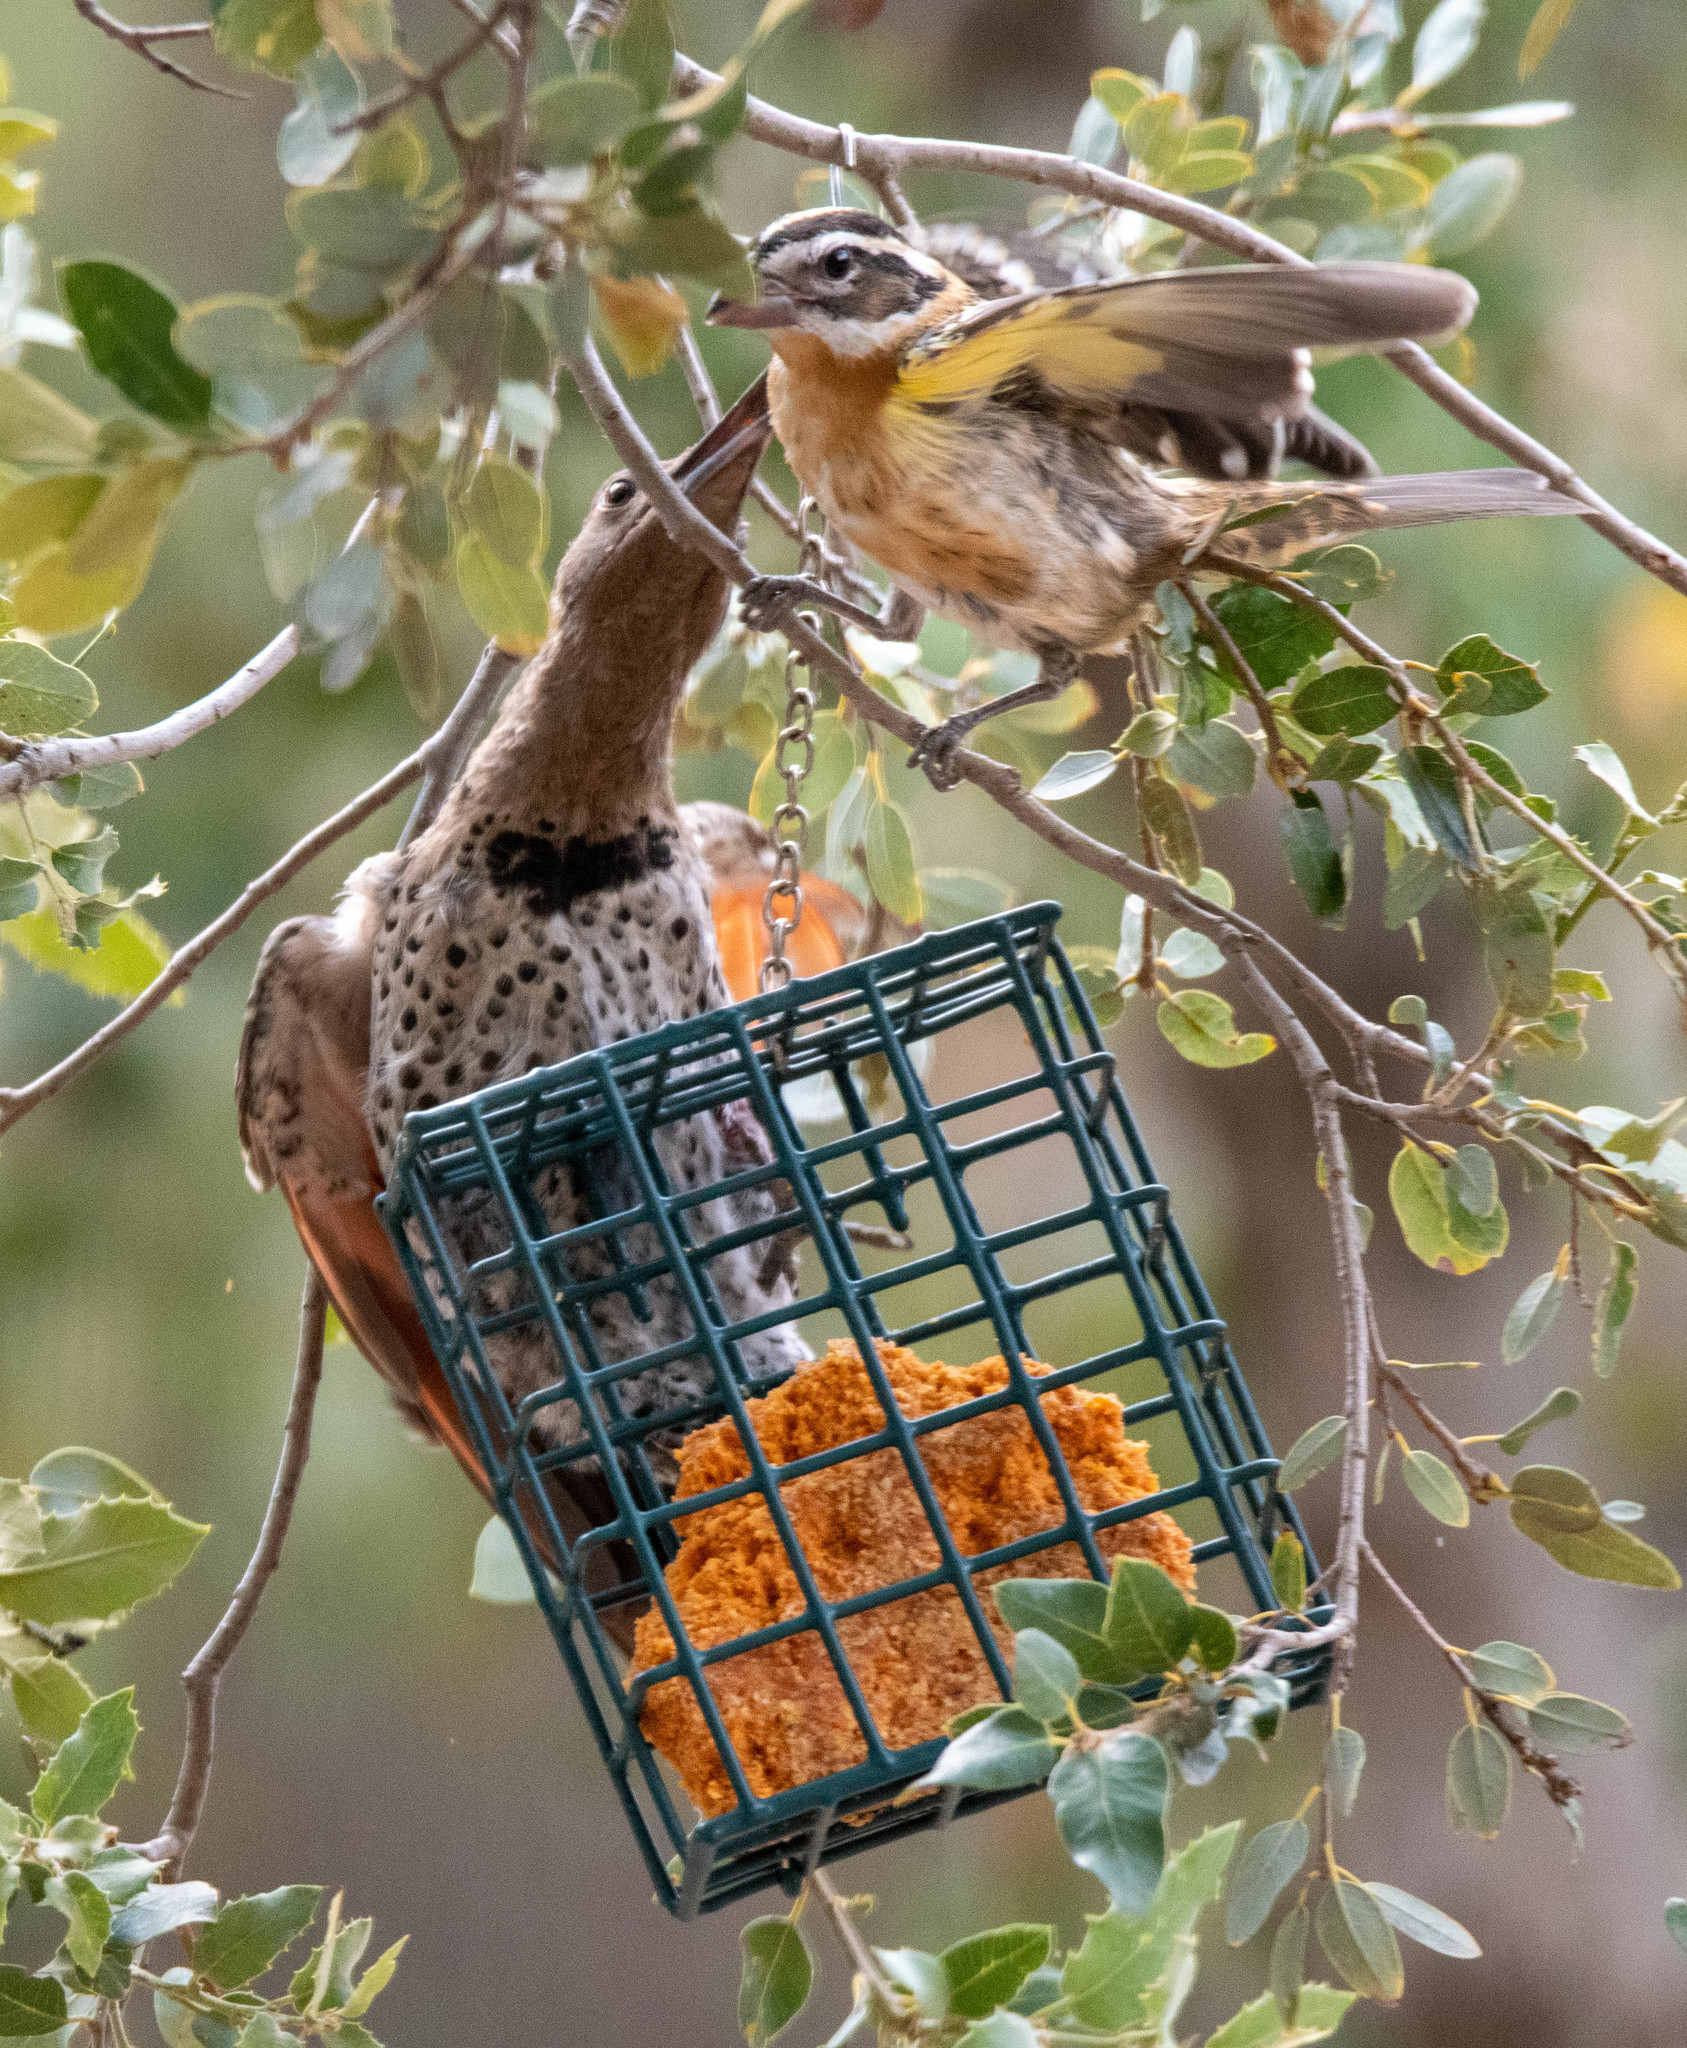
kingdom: Animalia
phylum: Chordata
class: Aves
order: Piciformes
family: Picidae
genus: Colaptes
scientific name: Colaptes auratus
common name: Northern flicker
